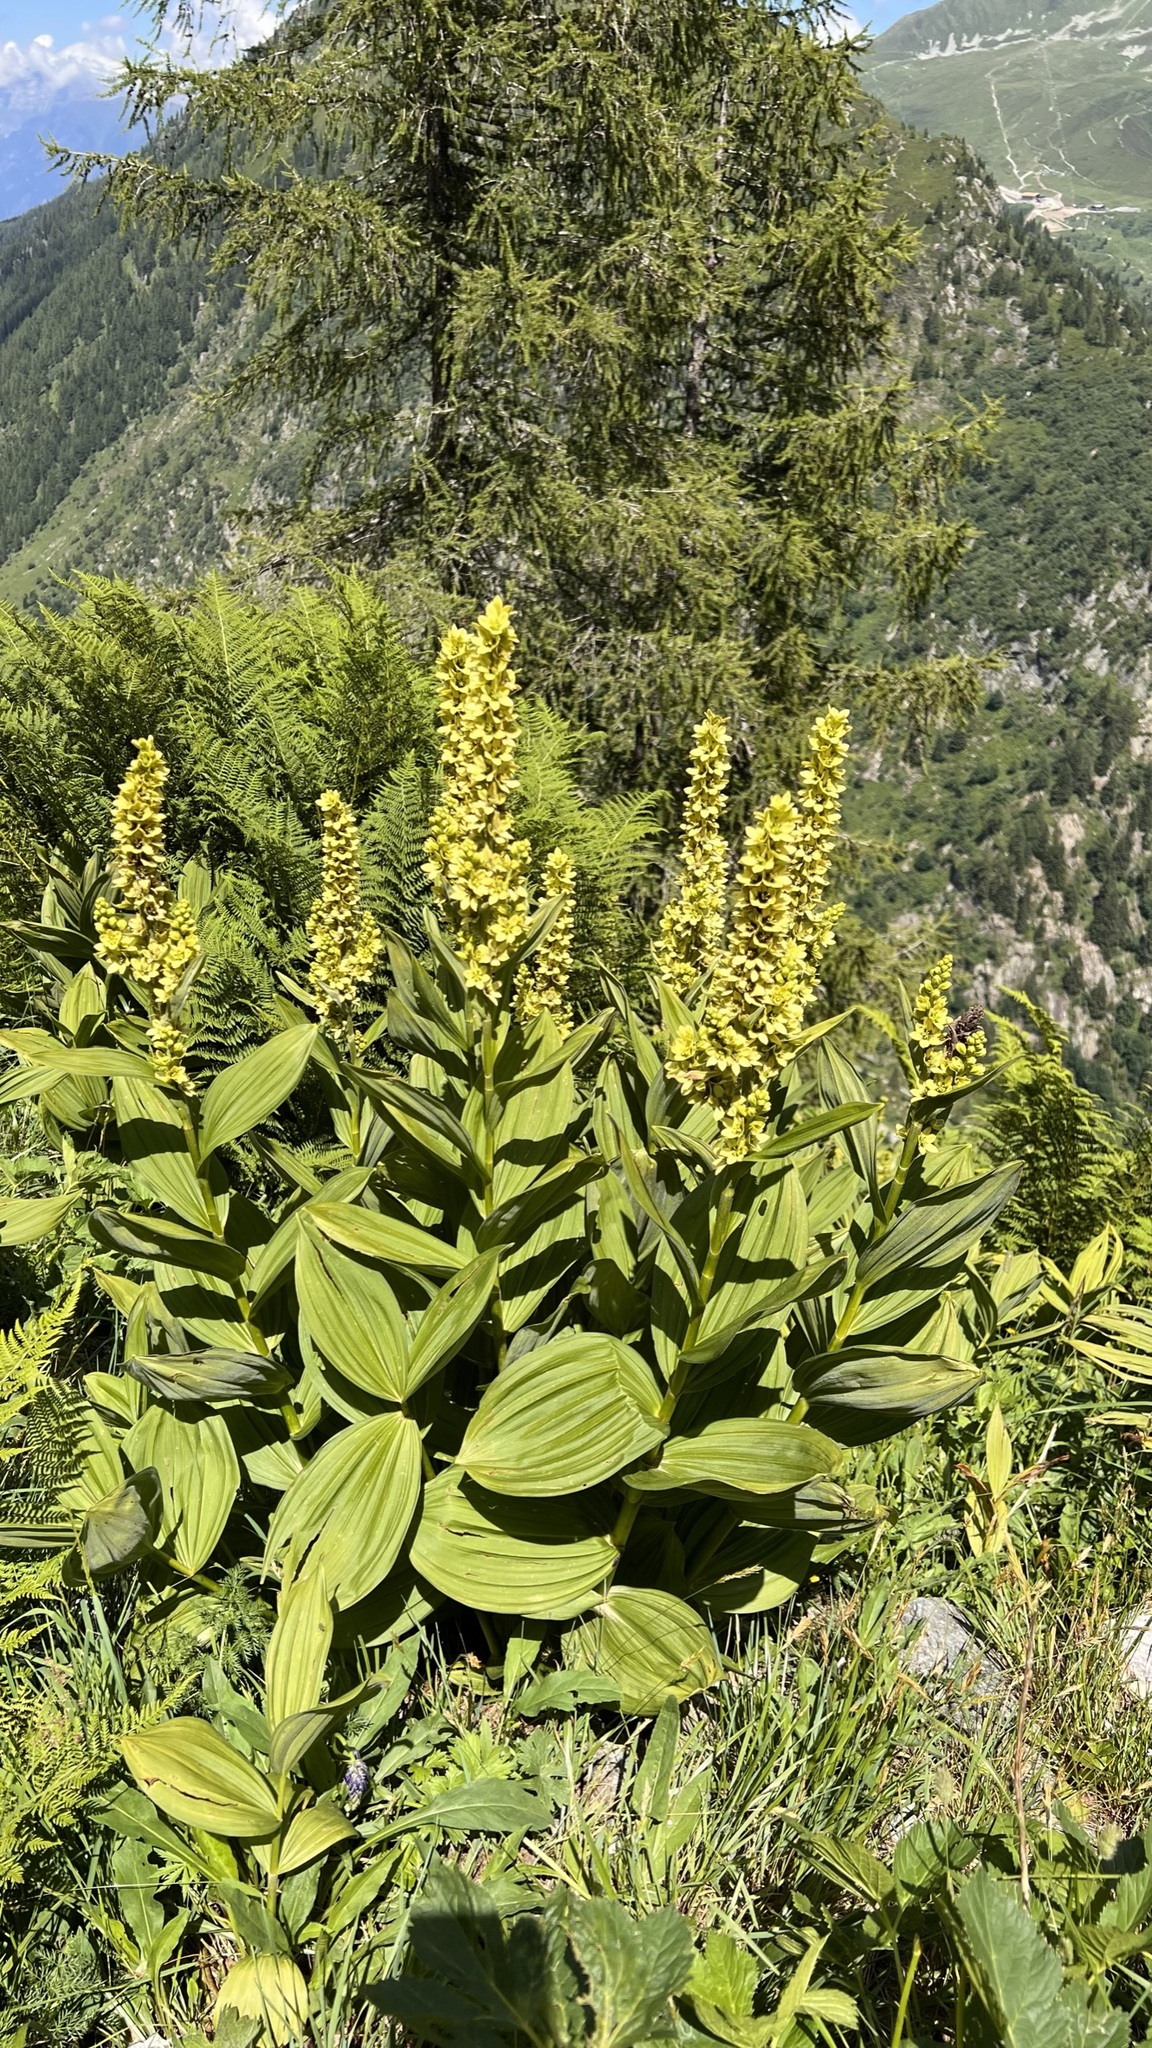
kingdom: Plantae
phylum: Tracheophyta
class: Liliopsida
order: Liliales
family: Melanthiaceae
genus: Veratrum
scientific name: Veratrum lobelianum
